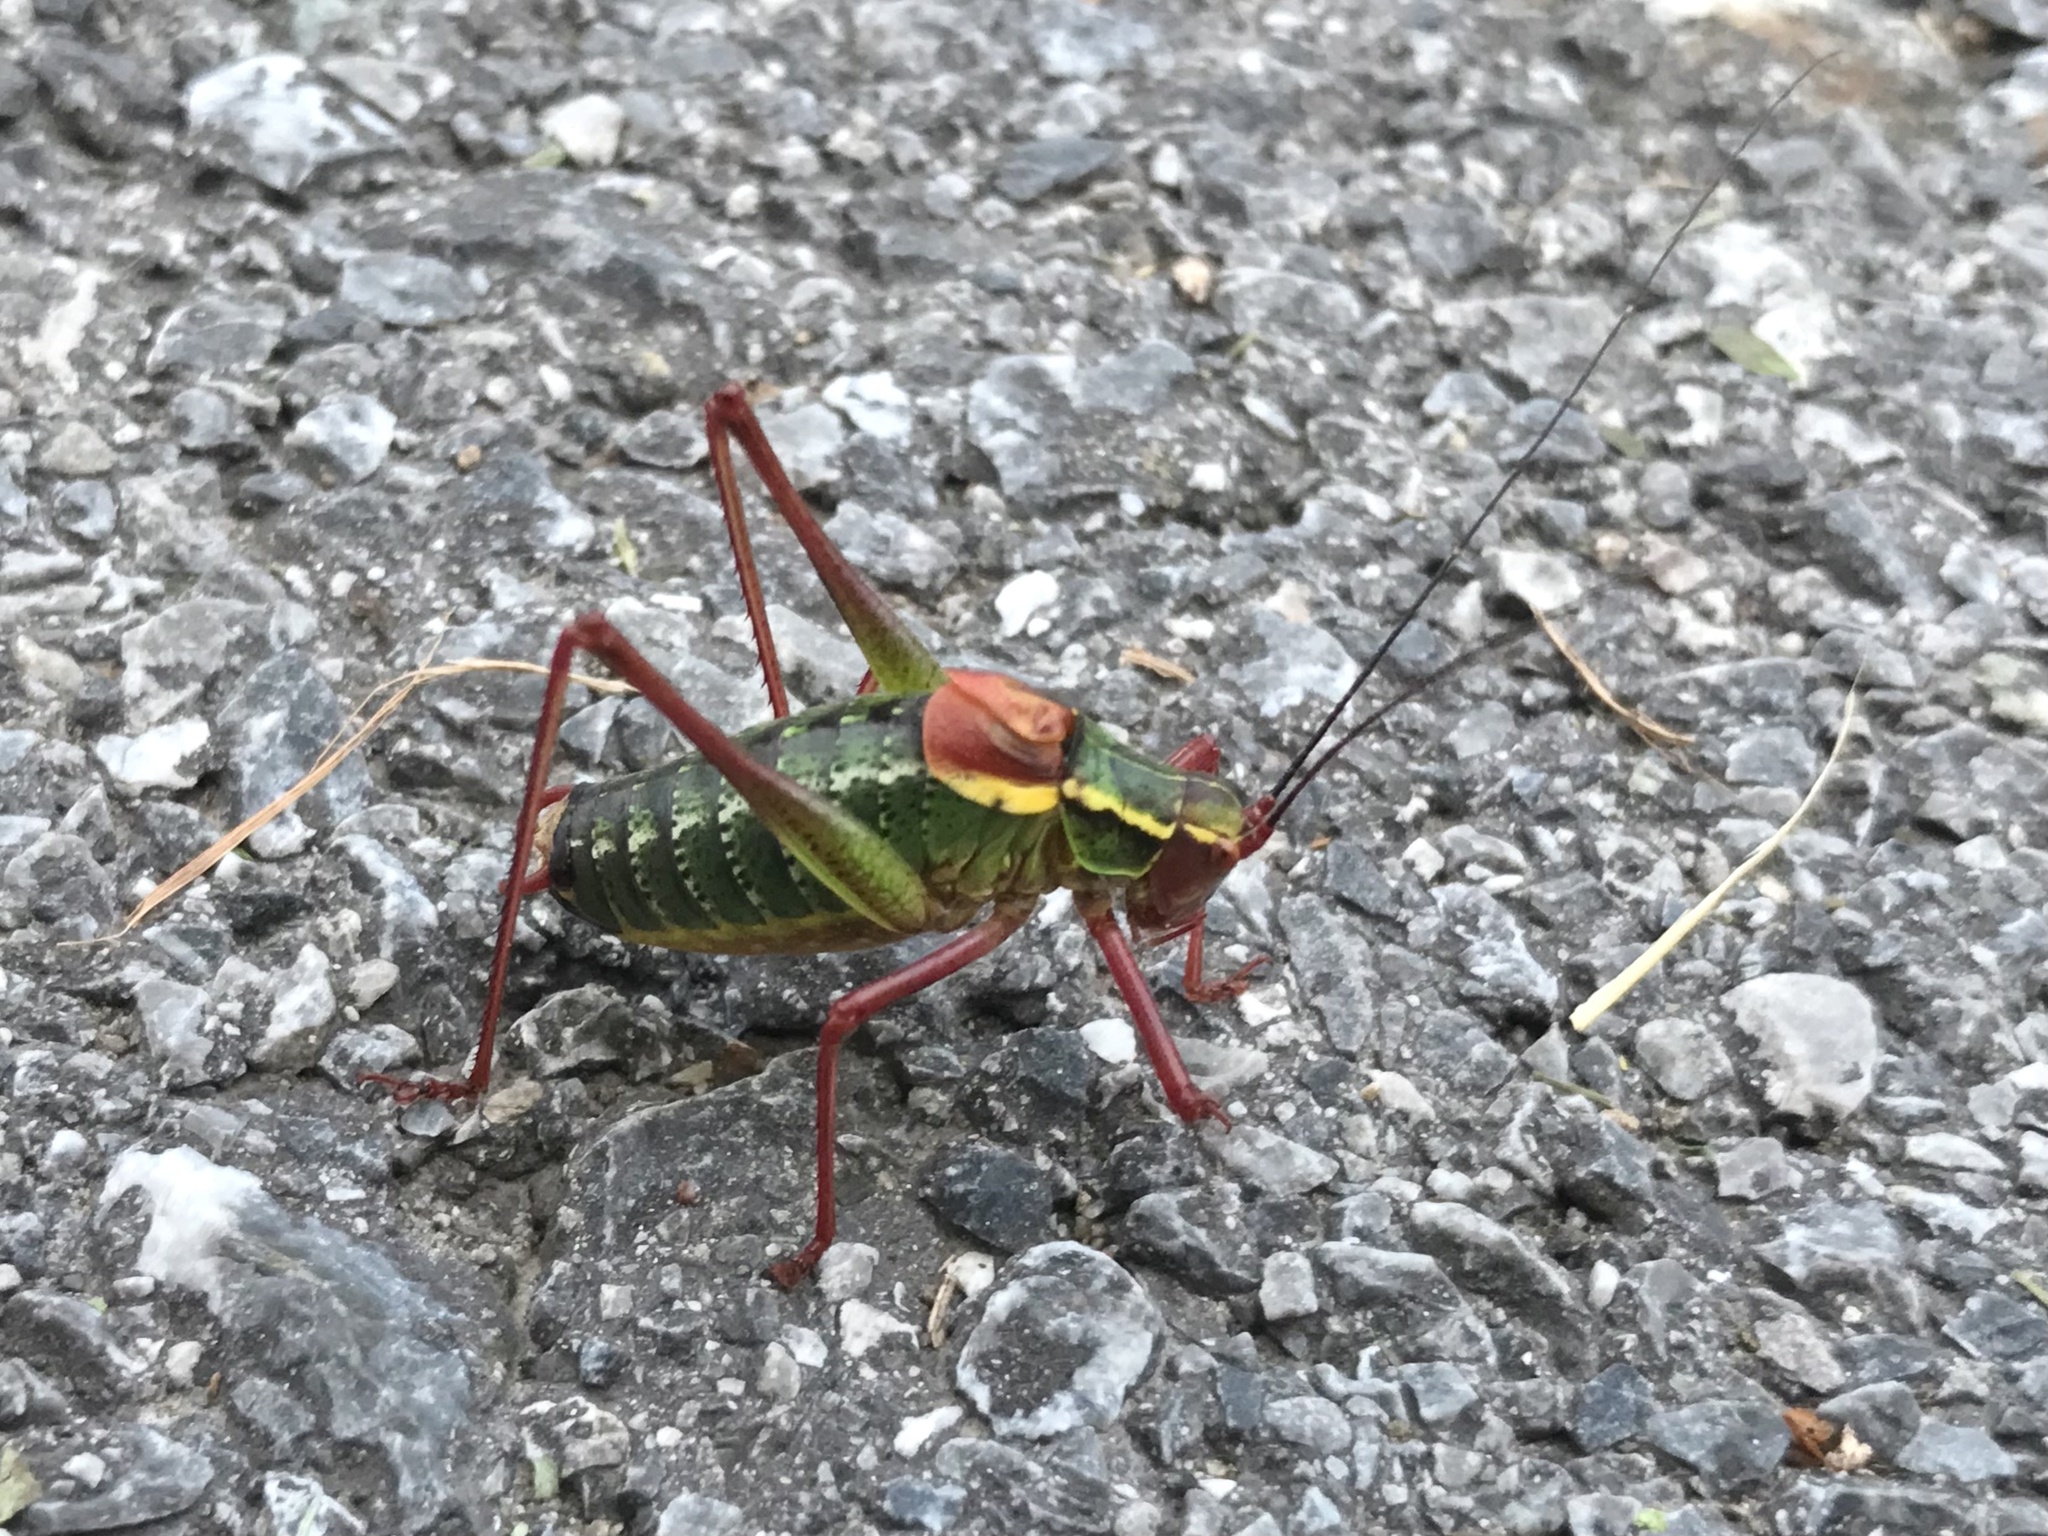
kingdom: Animalia
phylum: Arthropoda
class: Insecta
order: Orthoptera
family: Tettigoniidae
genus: Barbitistes
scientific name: Barbitistes serricauda
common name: Saw-tailed bush-cricket
